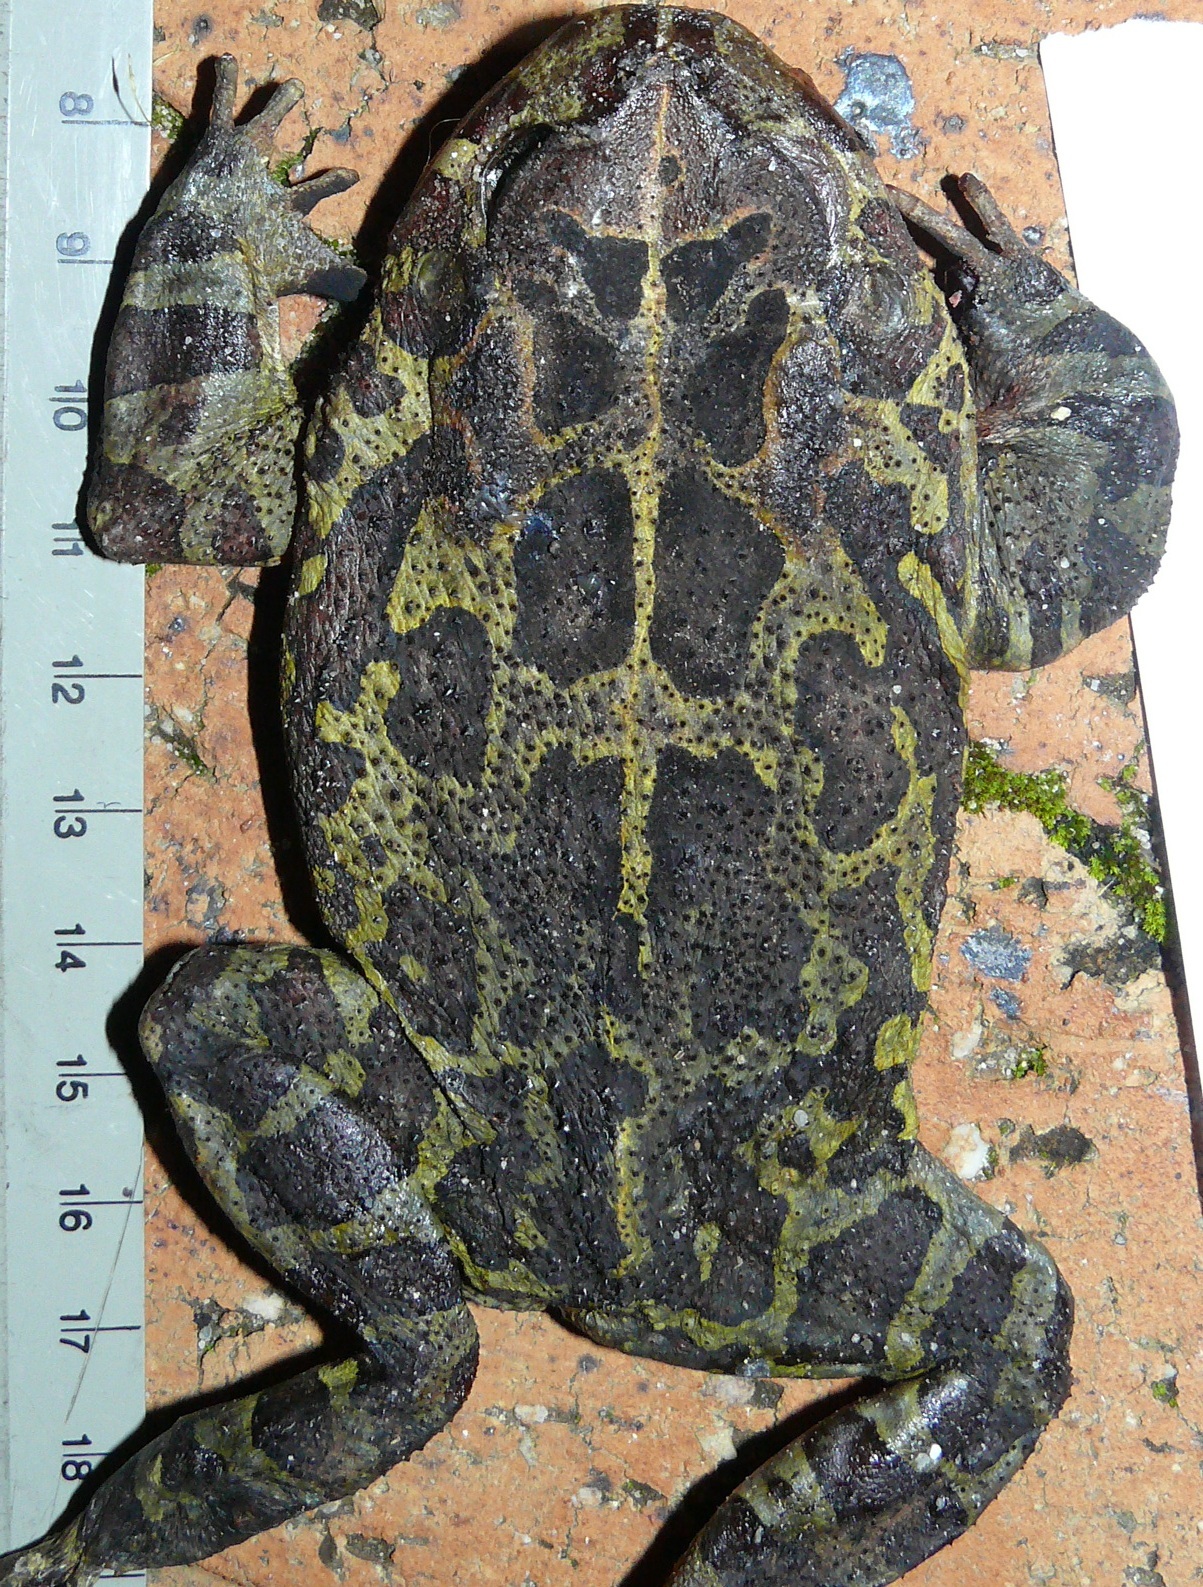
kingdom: Animalia
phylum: Chordata
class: Amphibia
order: Anura
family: Bufonidae
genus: Sclerophrys
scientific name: Sclerophrys pantherina
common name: Panther toad
